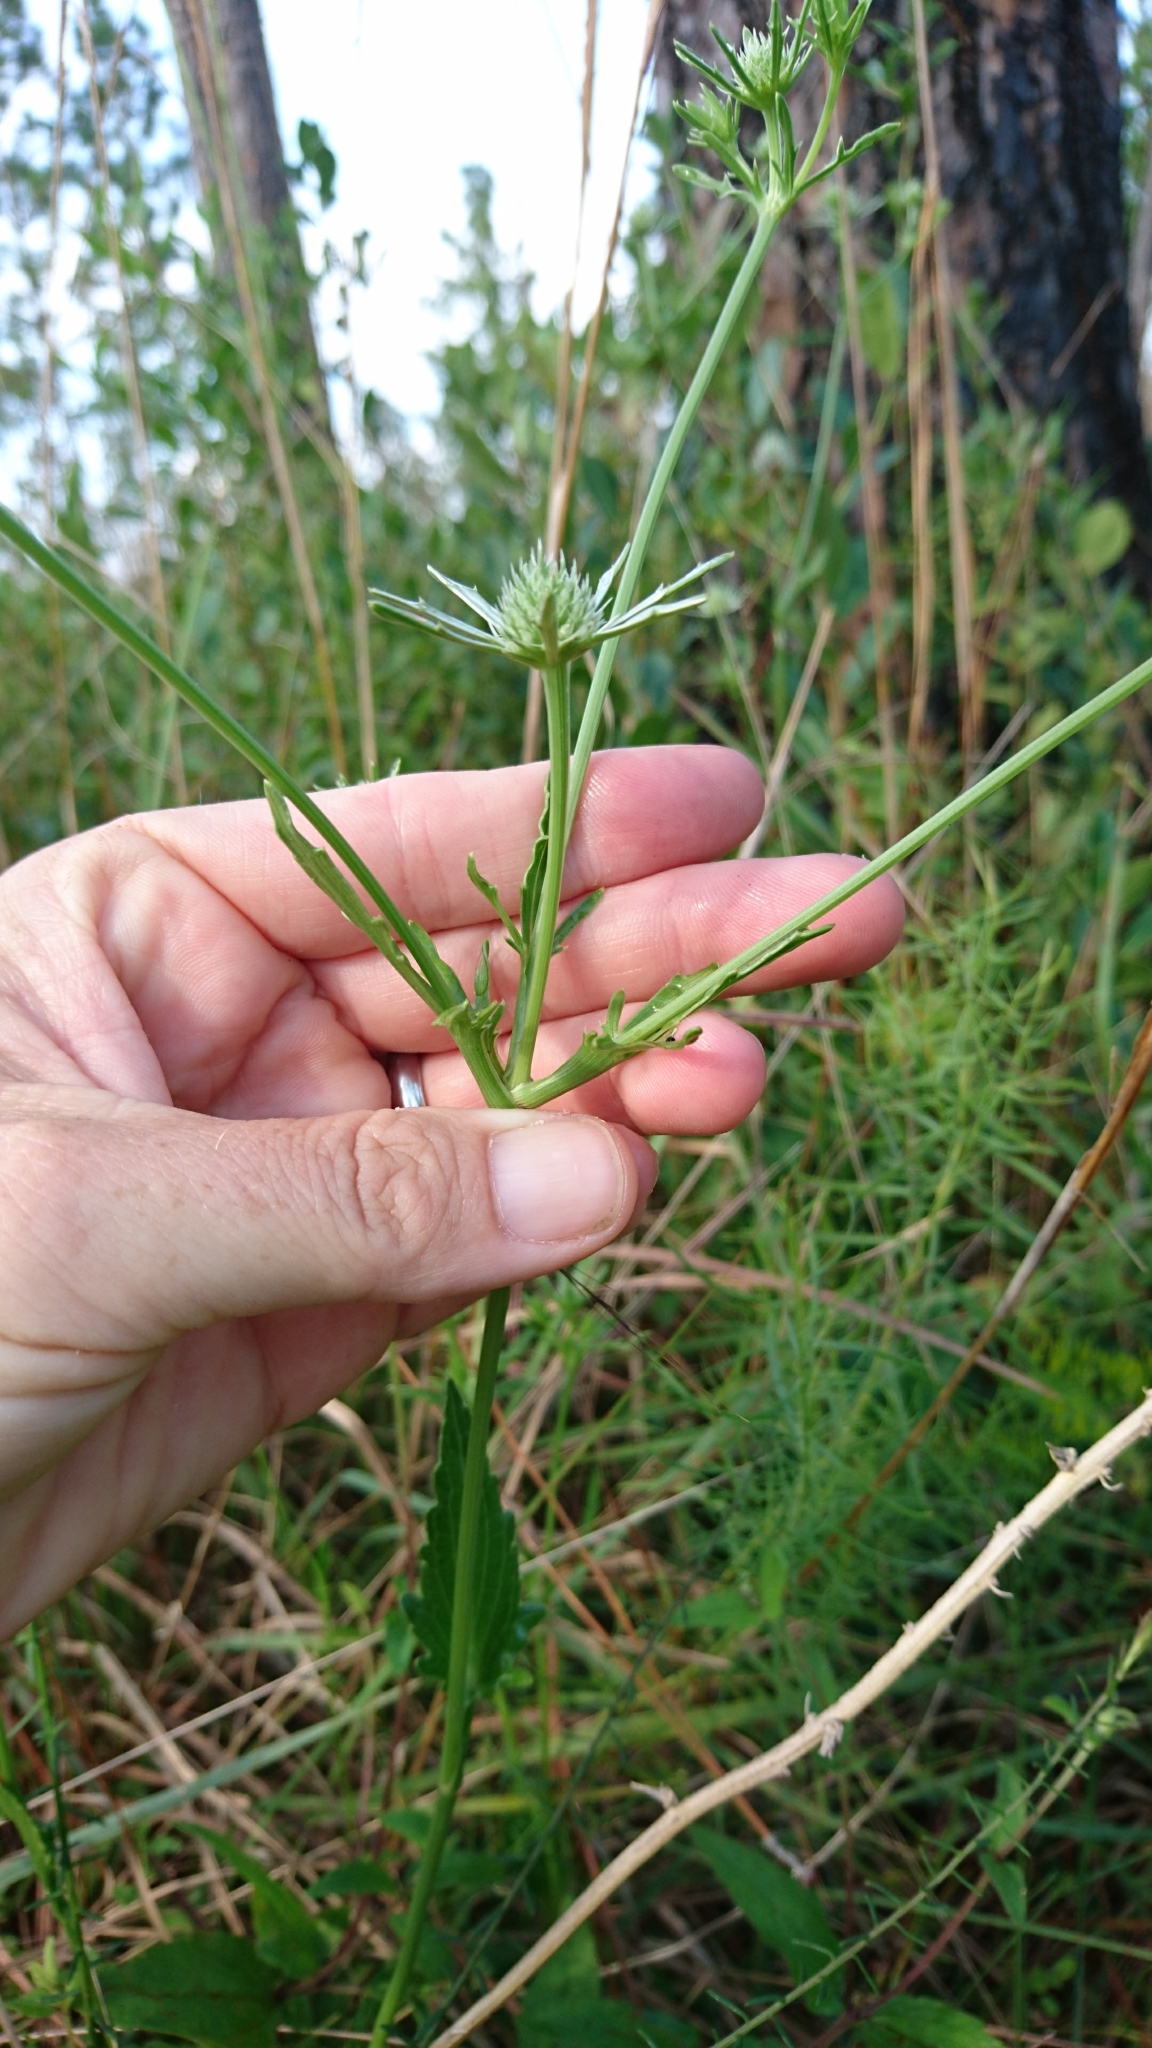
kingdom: Plantae
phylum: Tracheophyta
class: Magnoliopsida
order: Apiales
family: Apiaceae
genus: Eryngium
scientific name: Eryngium integrifolium
